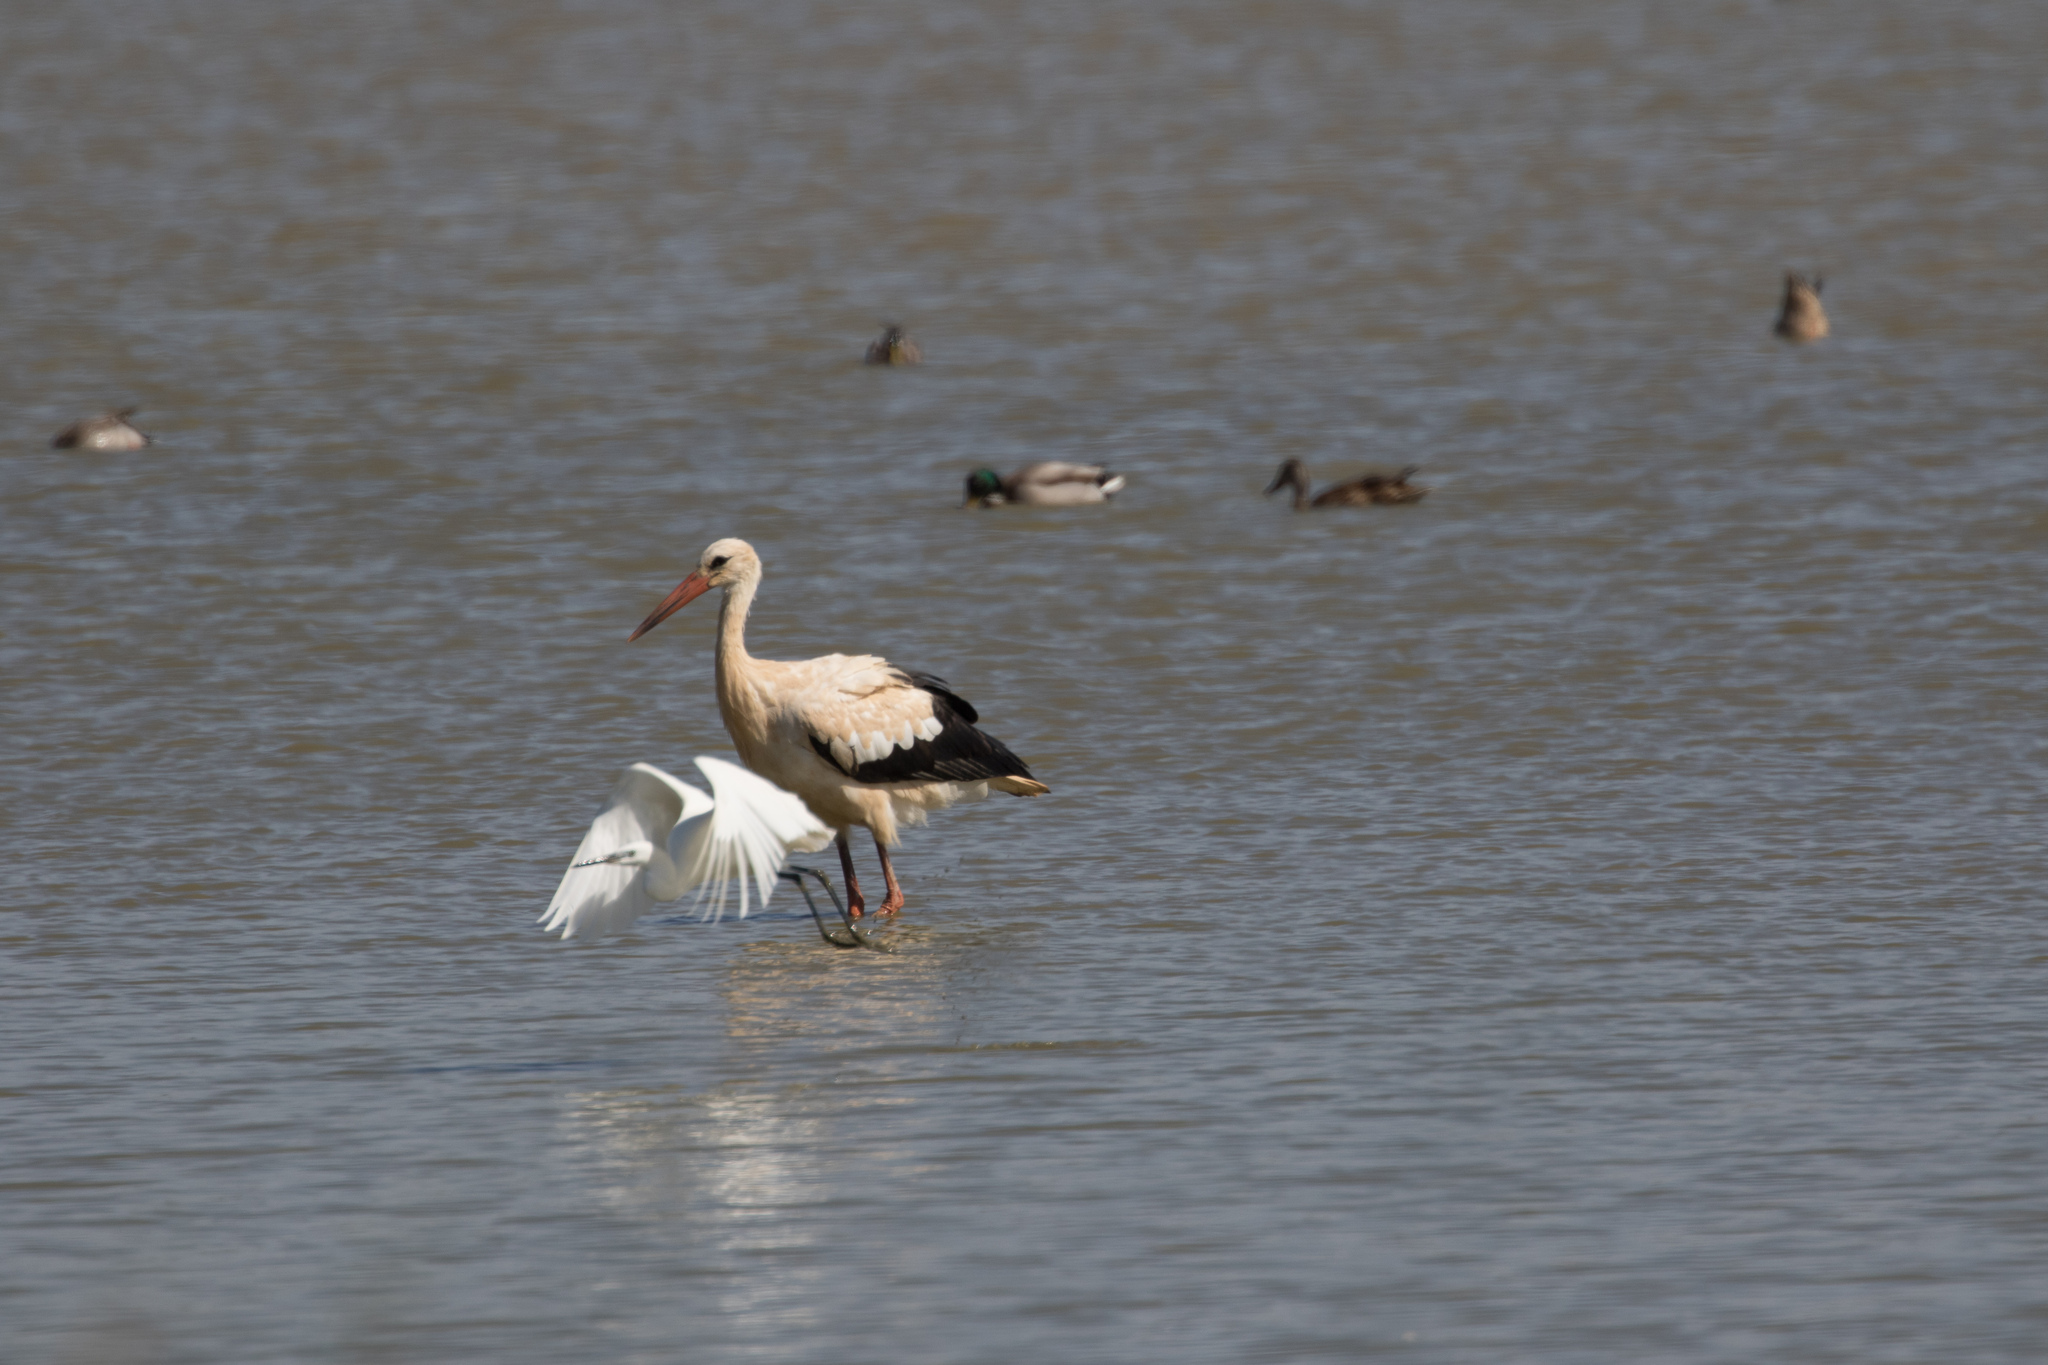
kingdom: Animalia
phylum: Chordata
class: Aves
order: Ciconiiformes
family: Ciconiidae
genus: Ciconia
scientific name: Ciconia ciconia
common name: White stork
